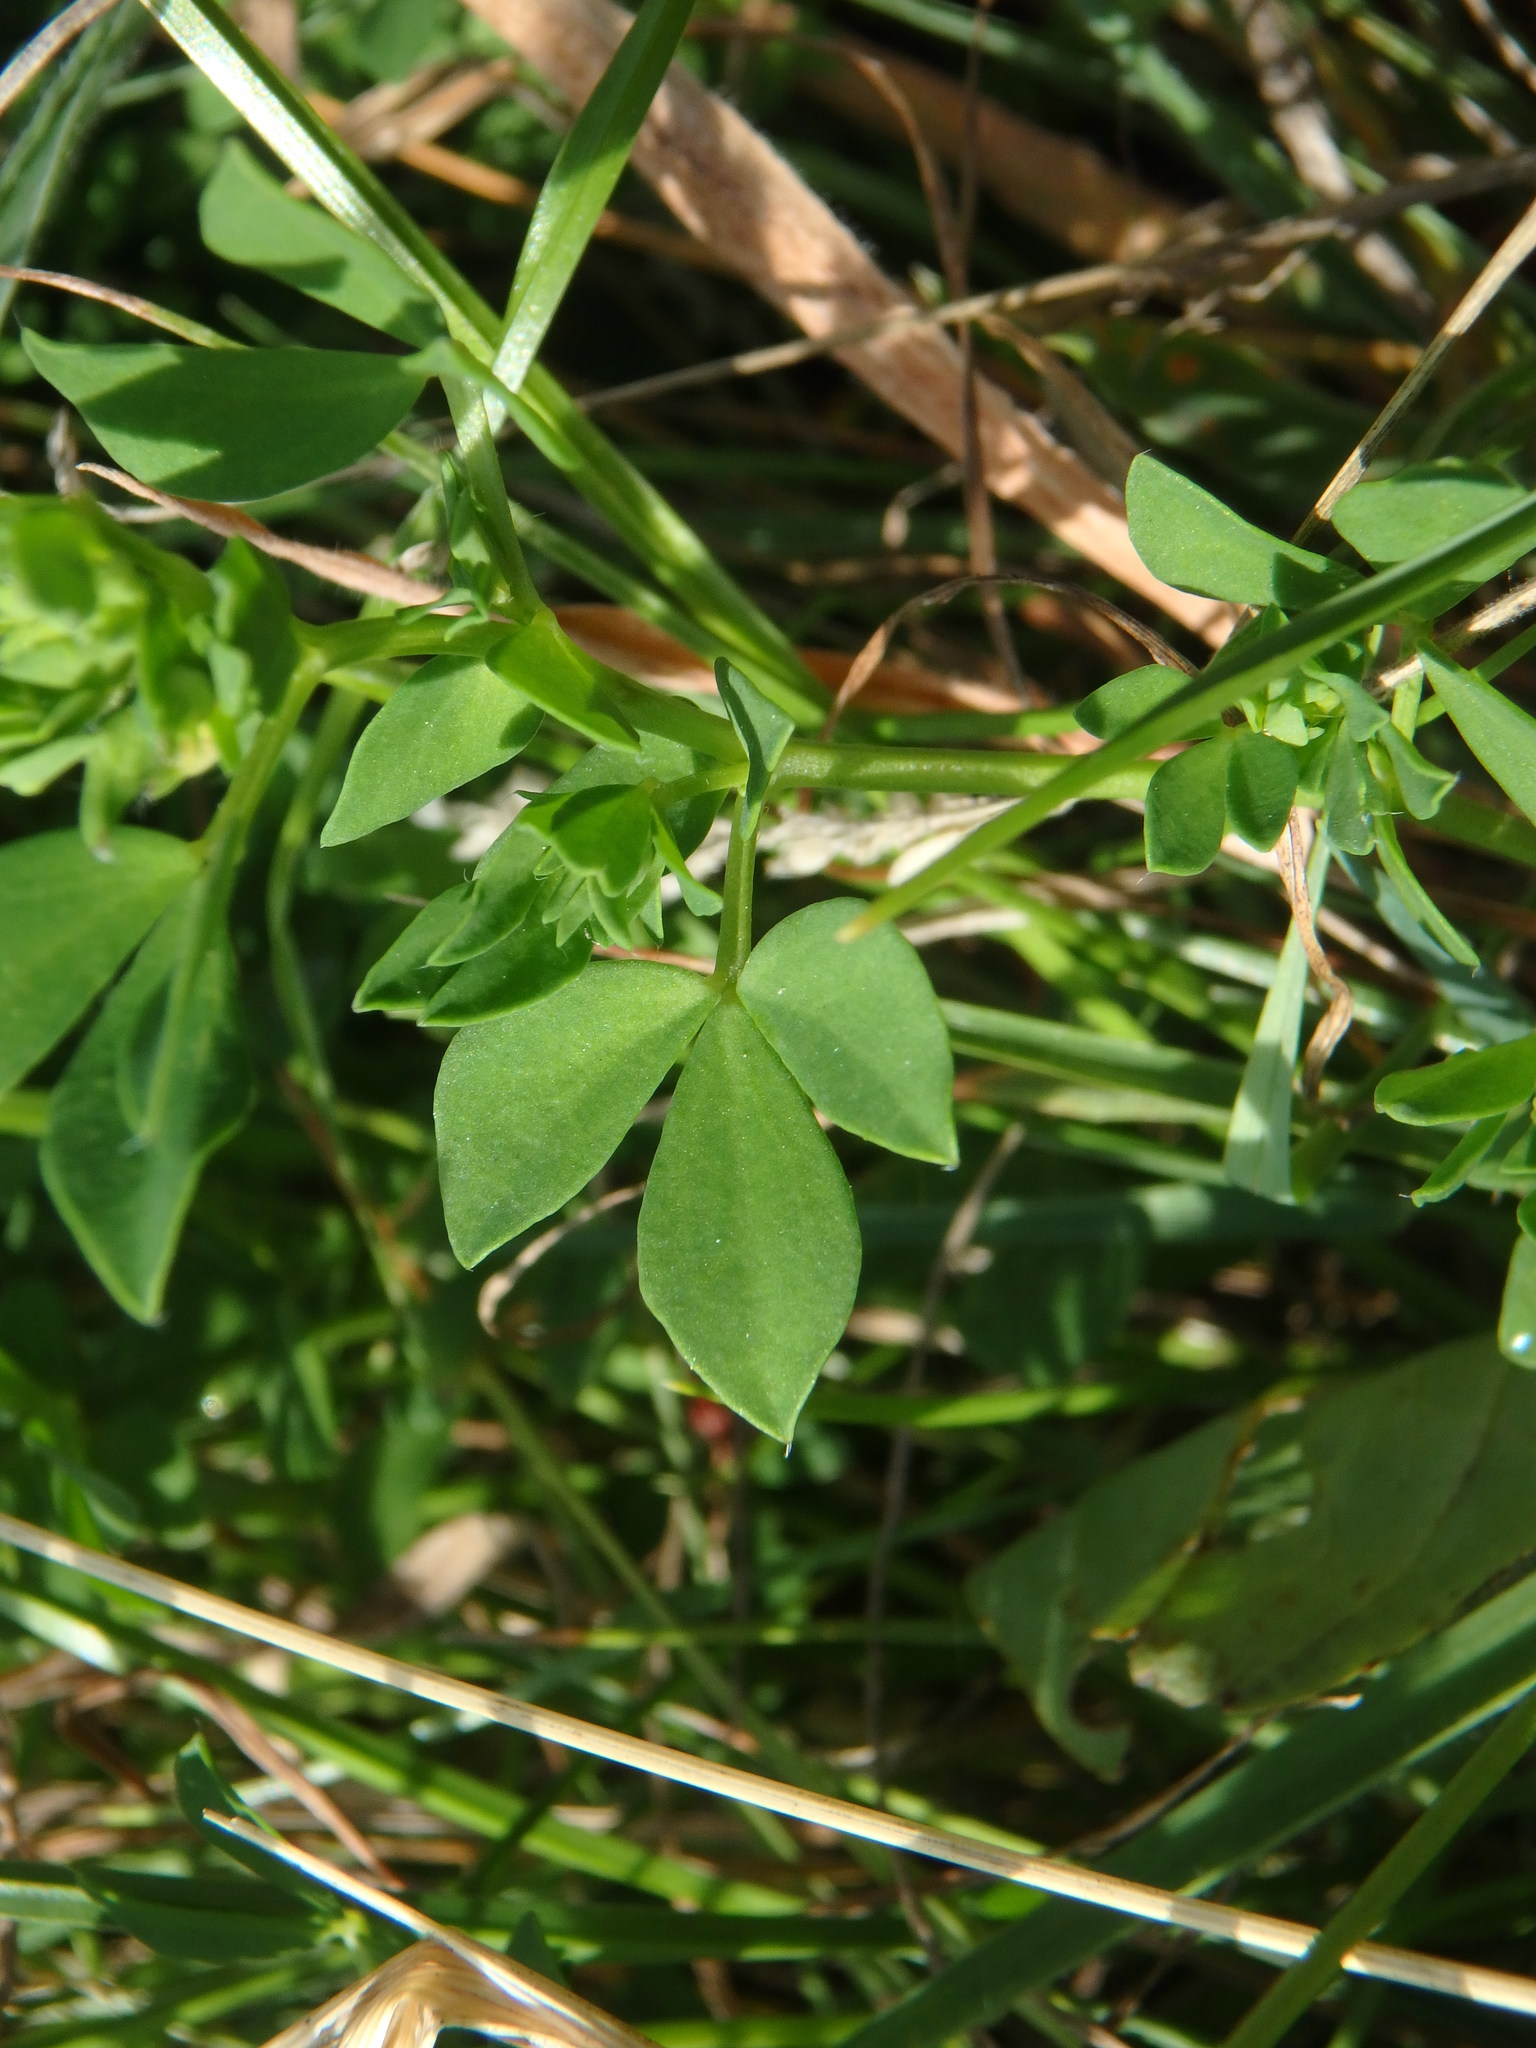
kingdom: Plantae
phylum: Tracheophyta
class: Magnoliopsida
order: Fabales
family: Fabaceae
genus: Lotus
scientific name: Lotus corniculatus
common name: Common bird's-foot-trefoil
